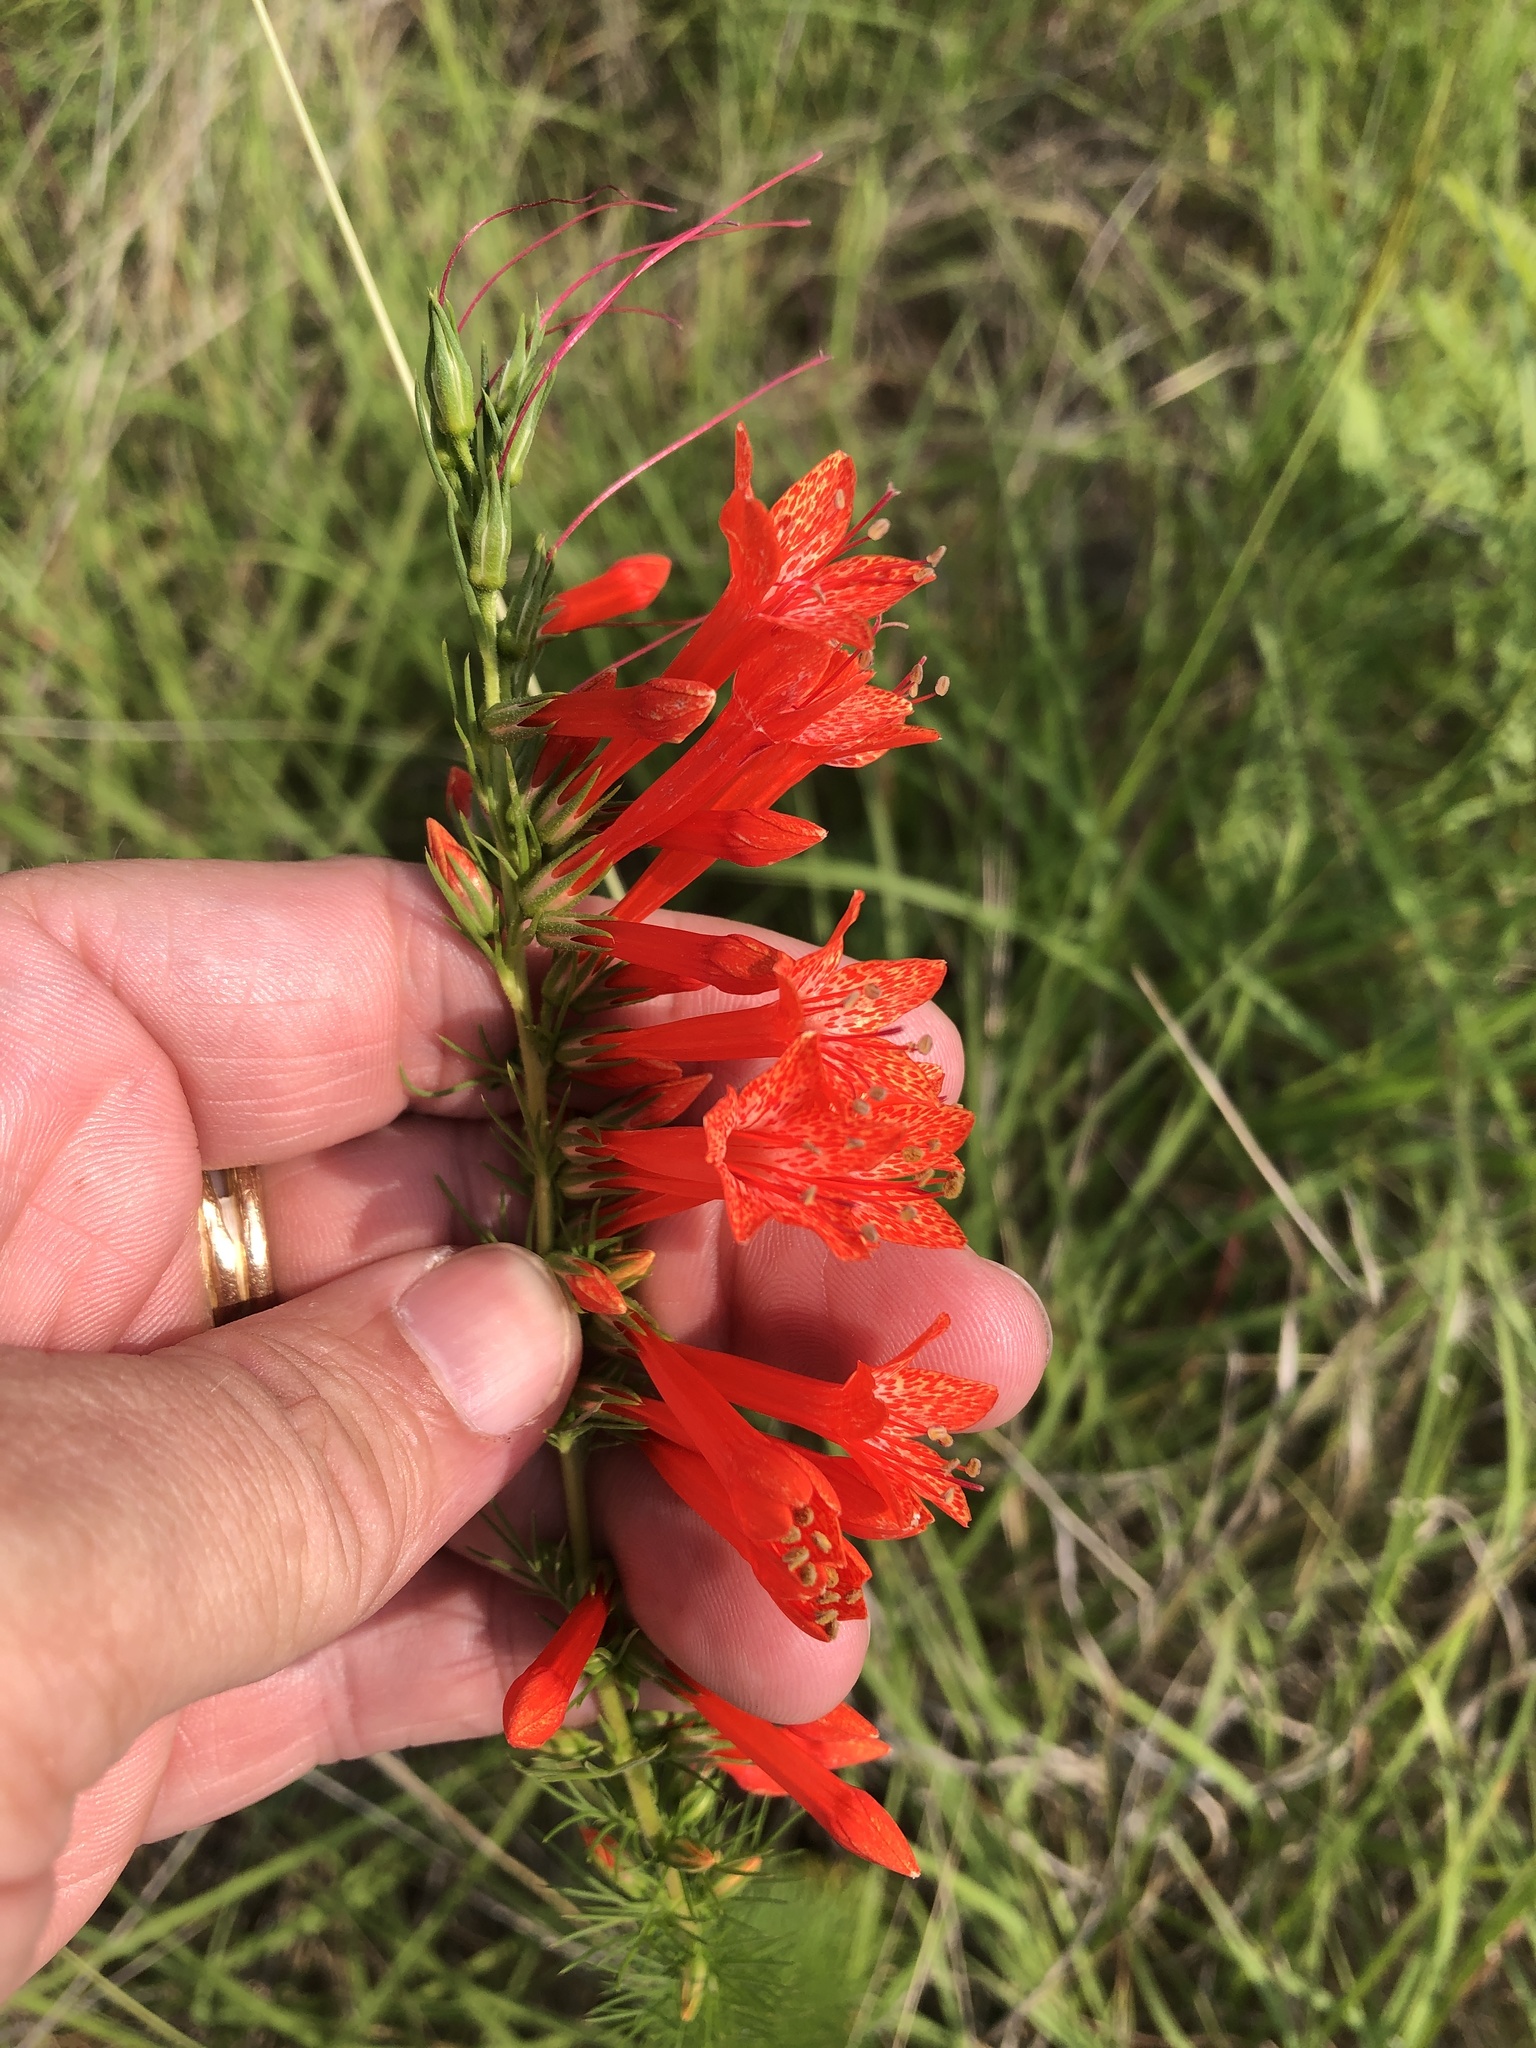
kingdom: Plantae
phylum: Tracheophyta
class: Magnoliopsida
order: Ericales
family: Polemoniaceae
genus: Ipomopsis
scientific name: Ipomopsis rubra
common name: Skyrocket
